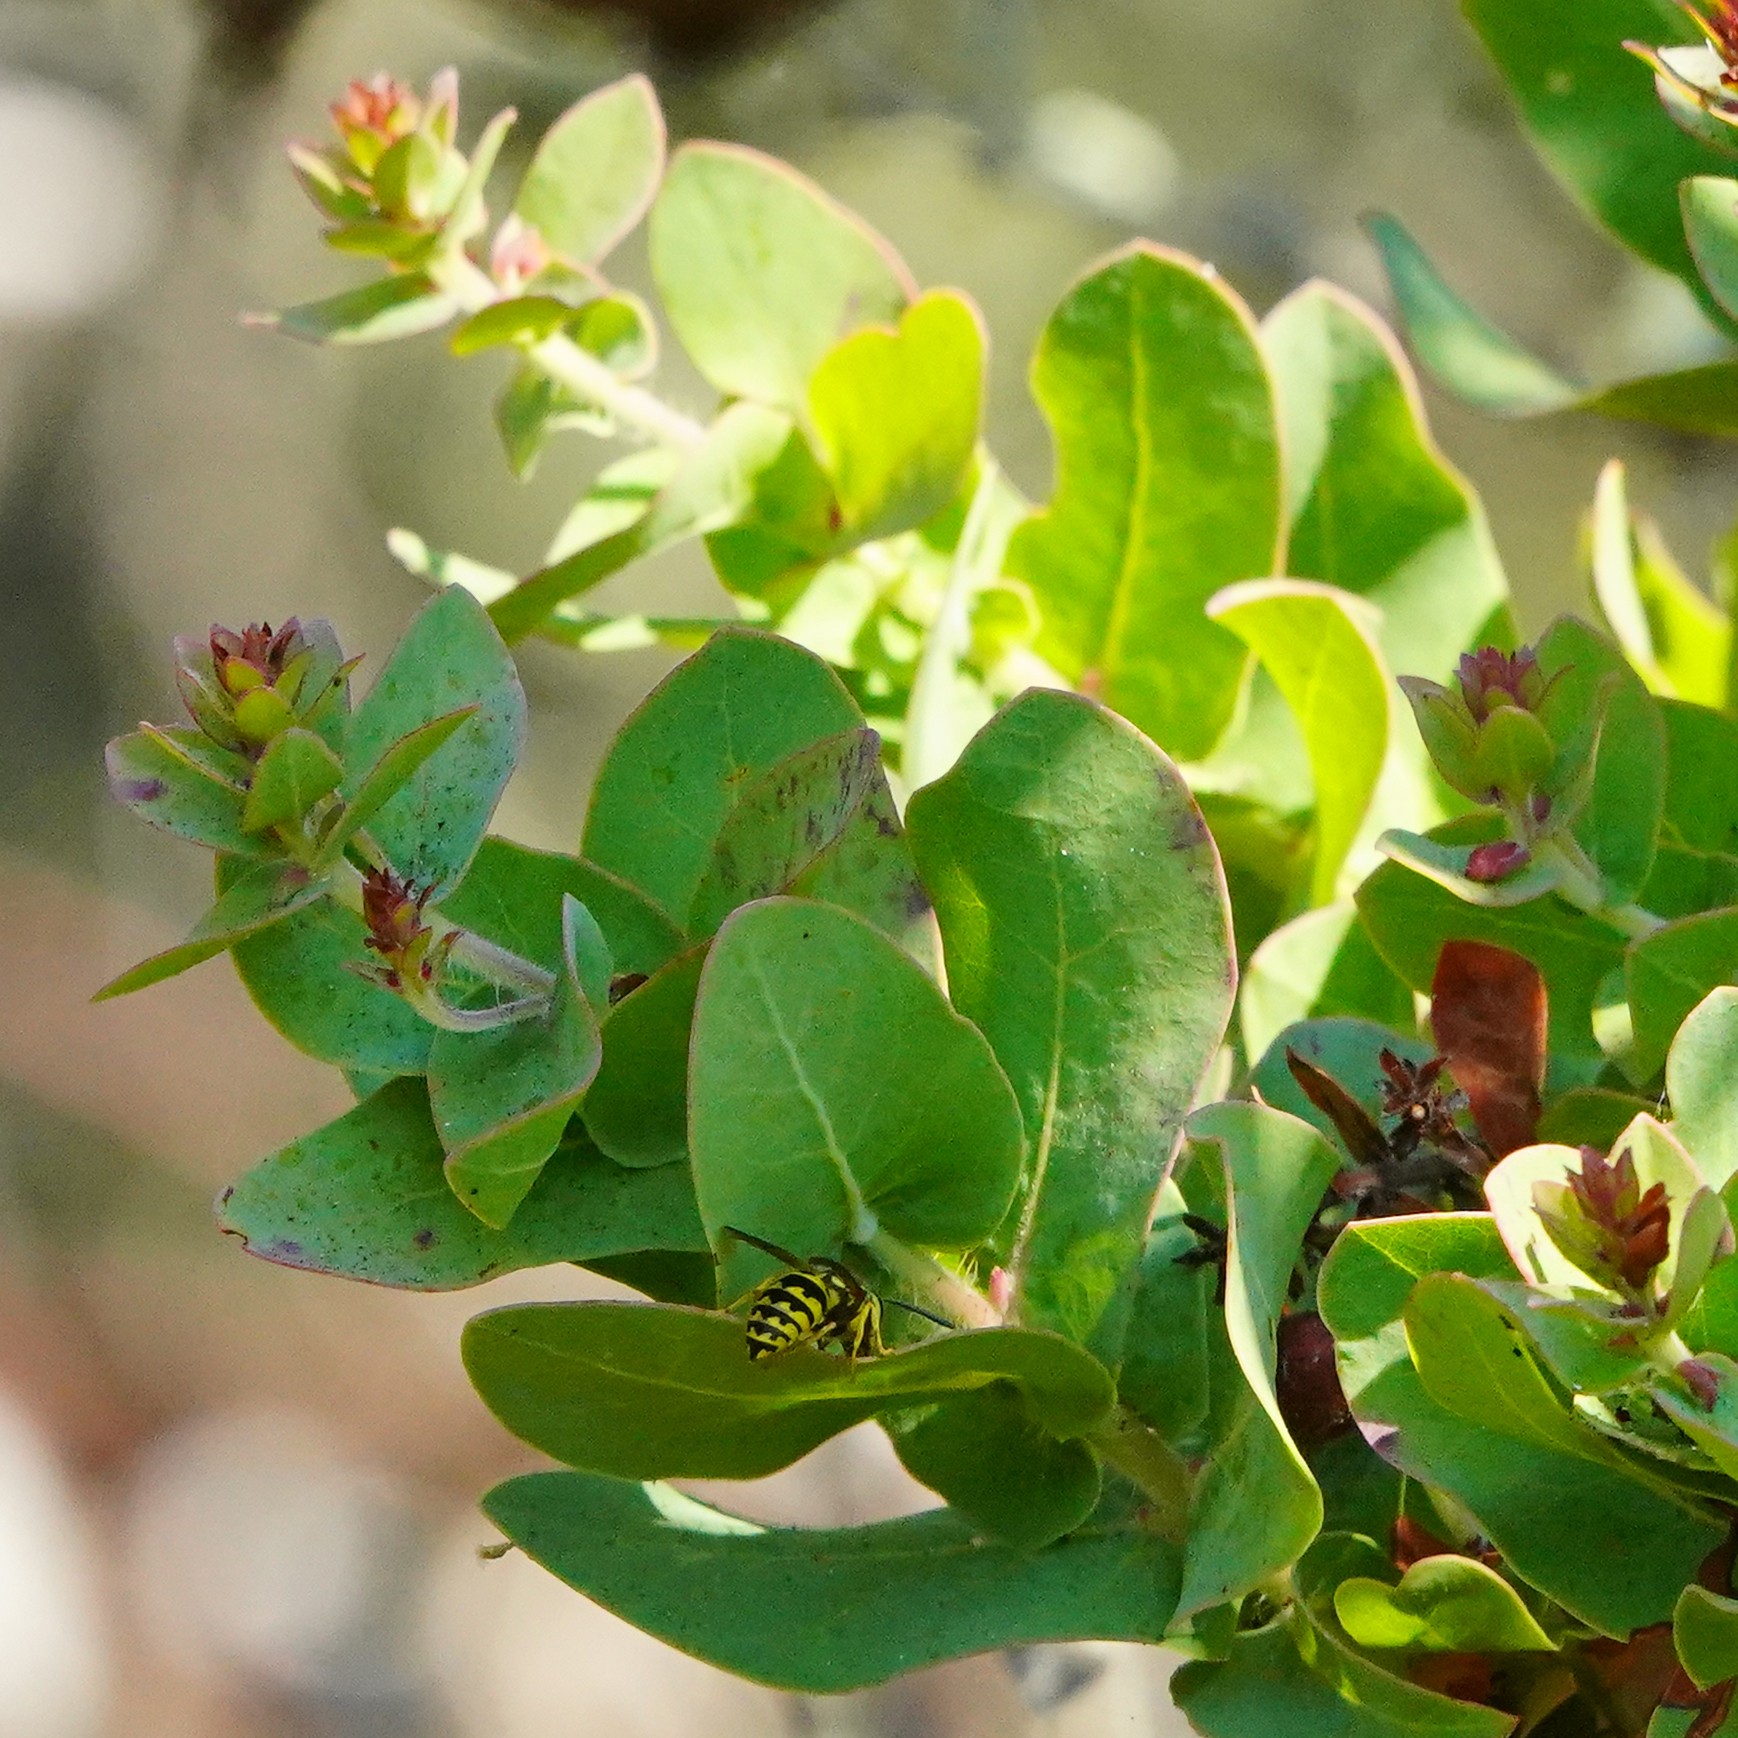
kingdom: Animalia
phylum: Arthropoda
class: Insecta
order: Hymenoptera
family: Vespidae
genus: Vespula
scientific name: Vespula pensylvanica
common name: Western yellowjacket
